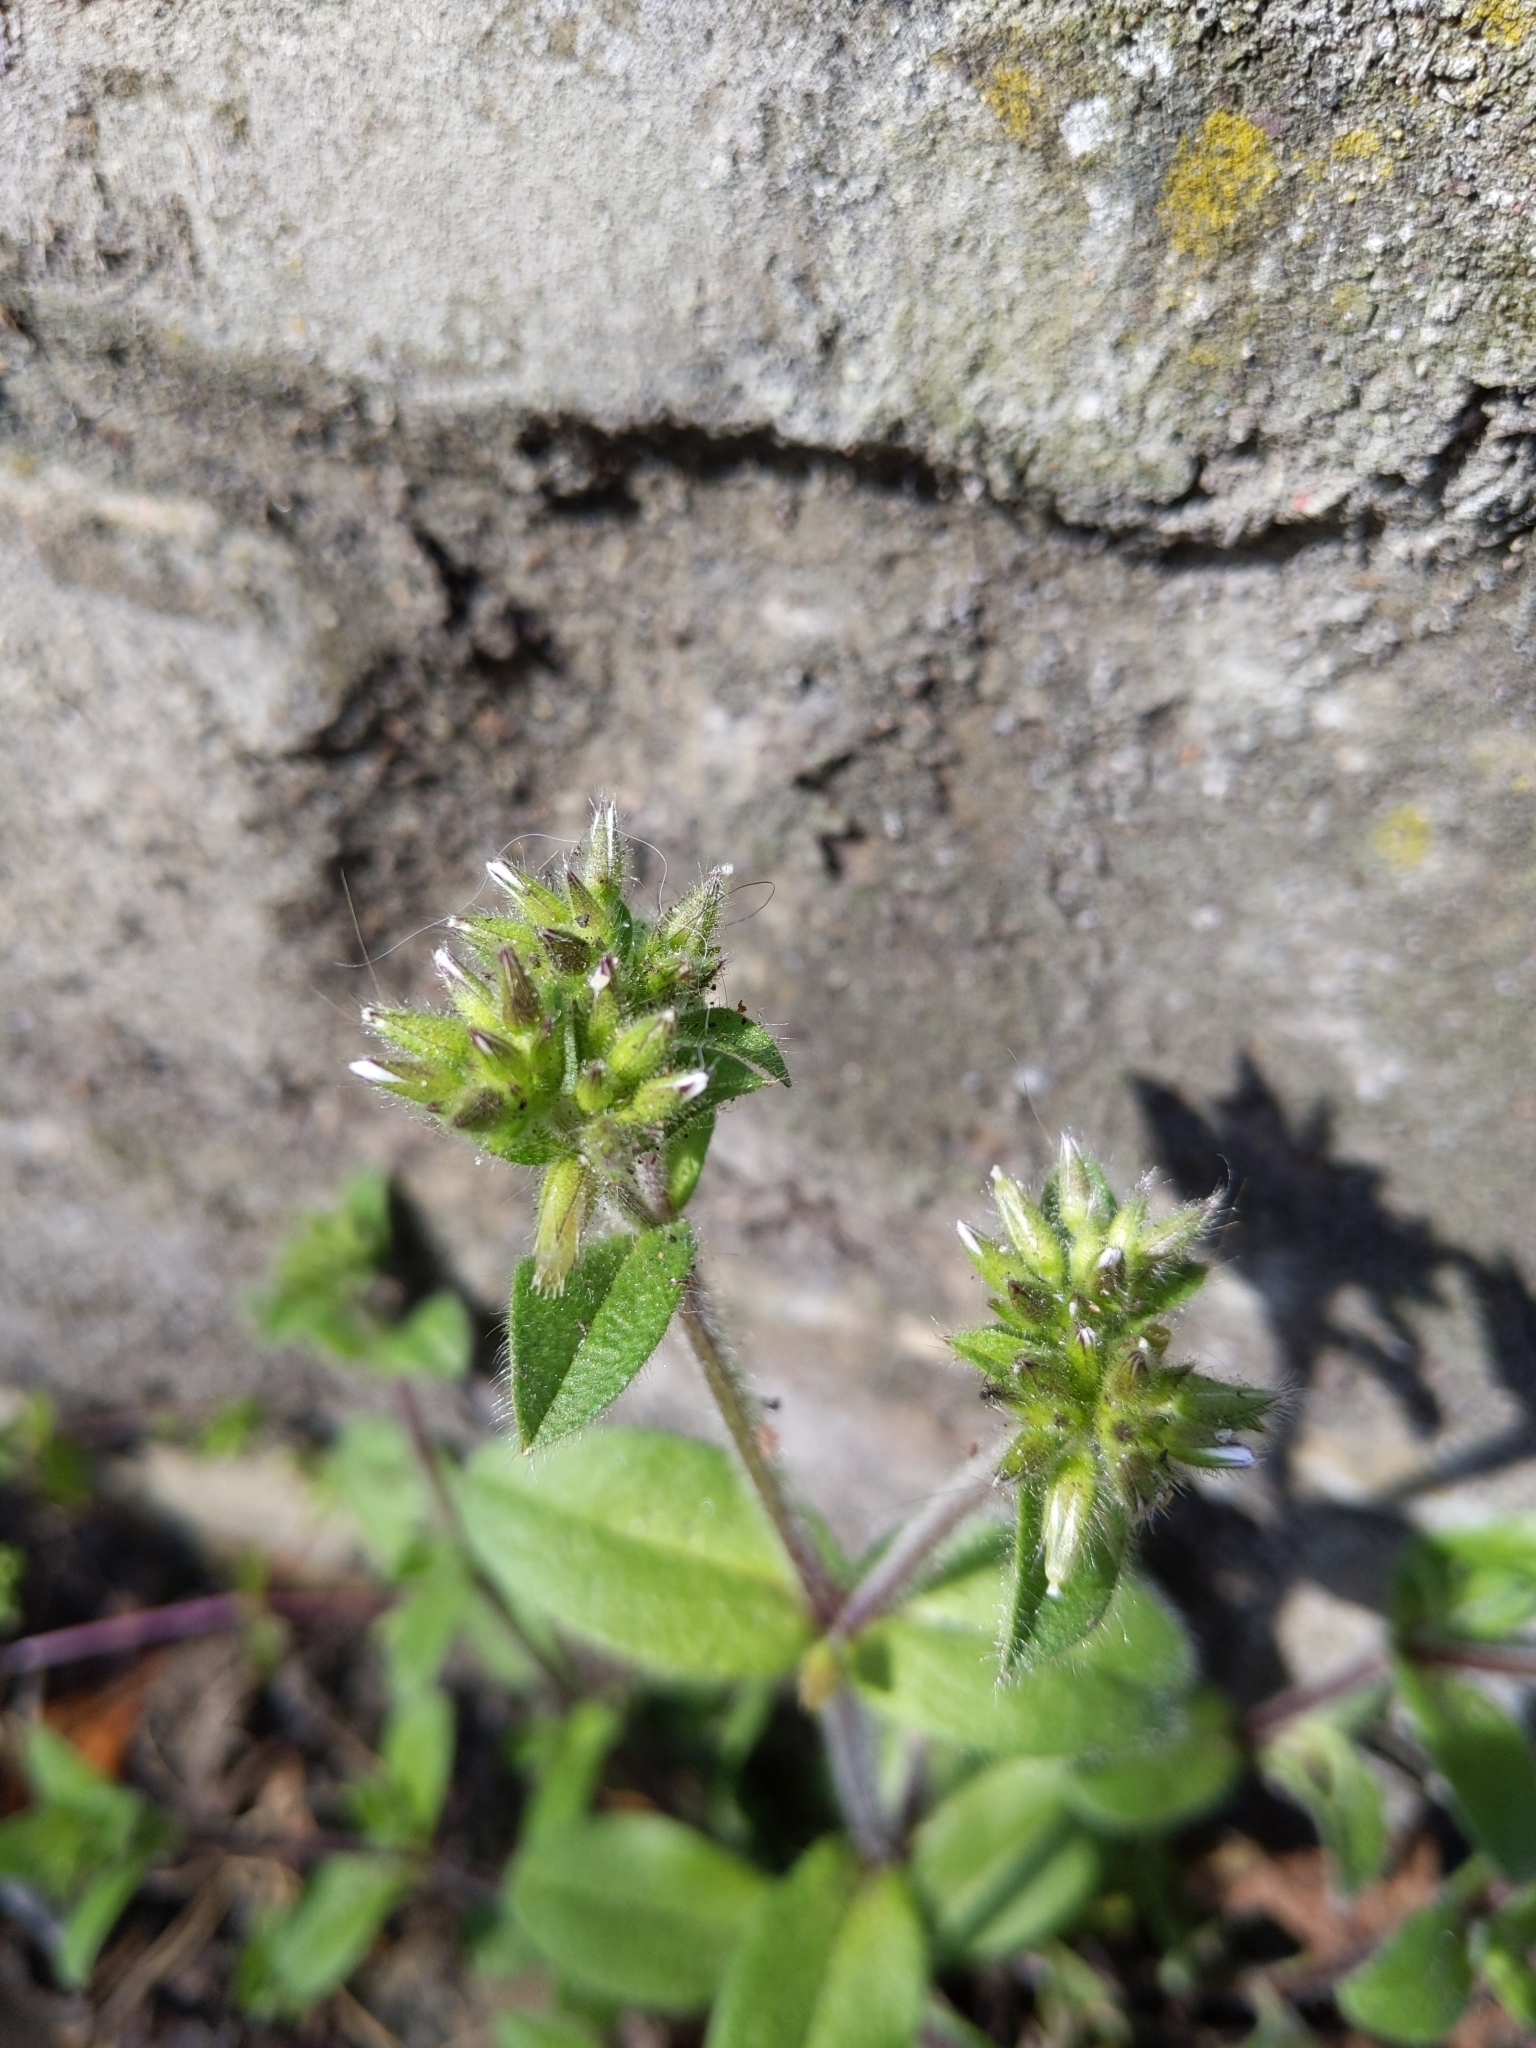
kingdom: Plantae
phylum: Tracheophyta
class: Magnoliopsida
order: Caryophyllales
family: Caryophyllaceae
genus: Cerastium
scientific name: Cerastium glomeratum
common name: Sticky chickweed
